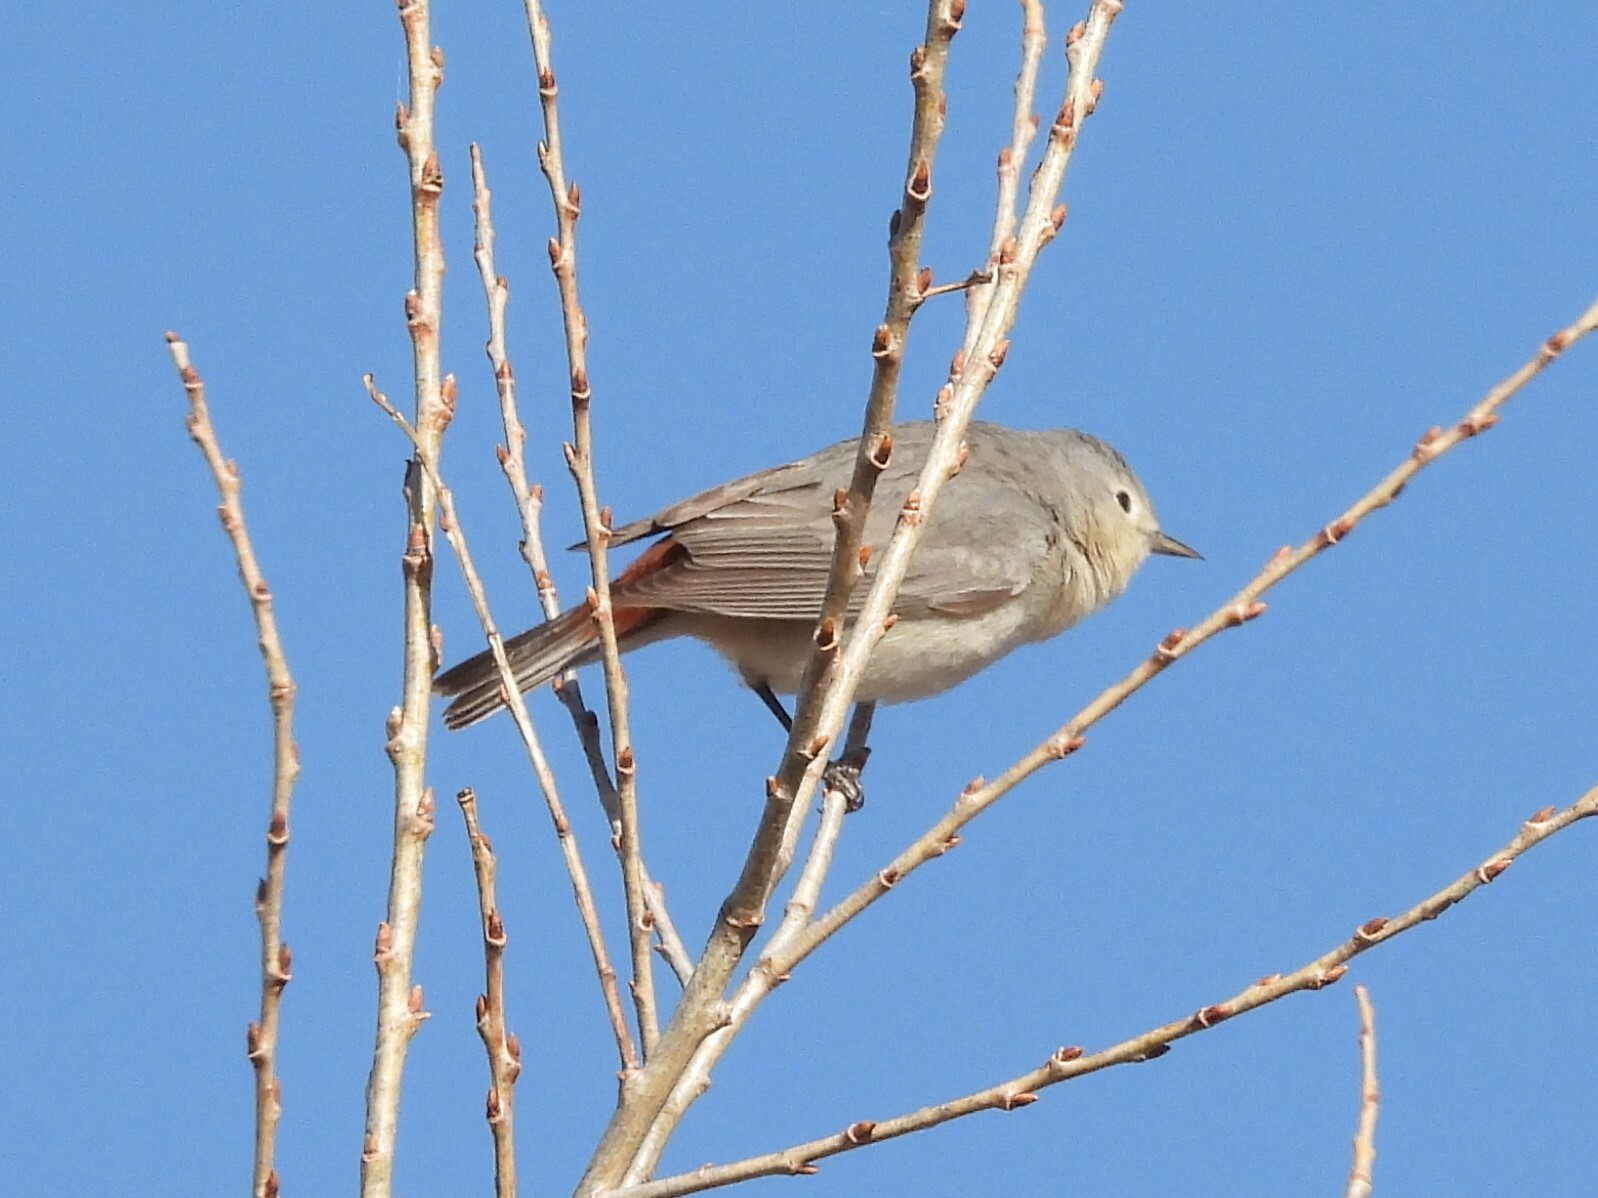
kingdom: Animalia
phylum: Chordata
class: Aves
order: Passeriformes
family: Parulidae
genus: Leiothlypis
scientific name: Leiothlypis luciae
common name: Lucy's warbler
